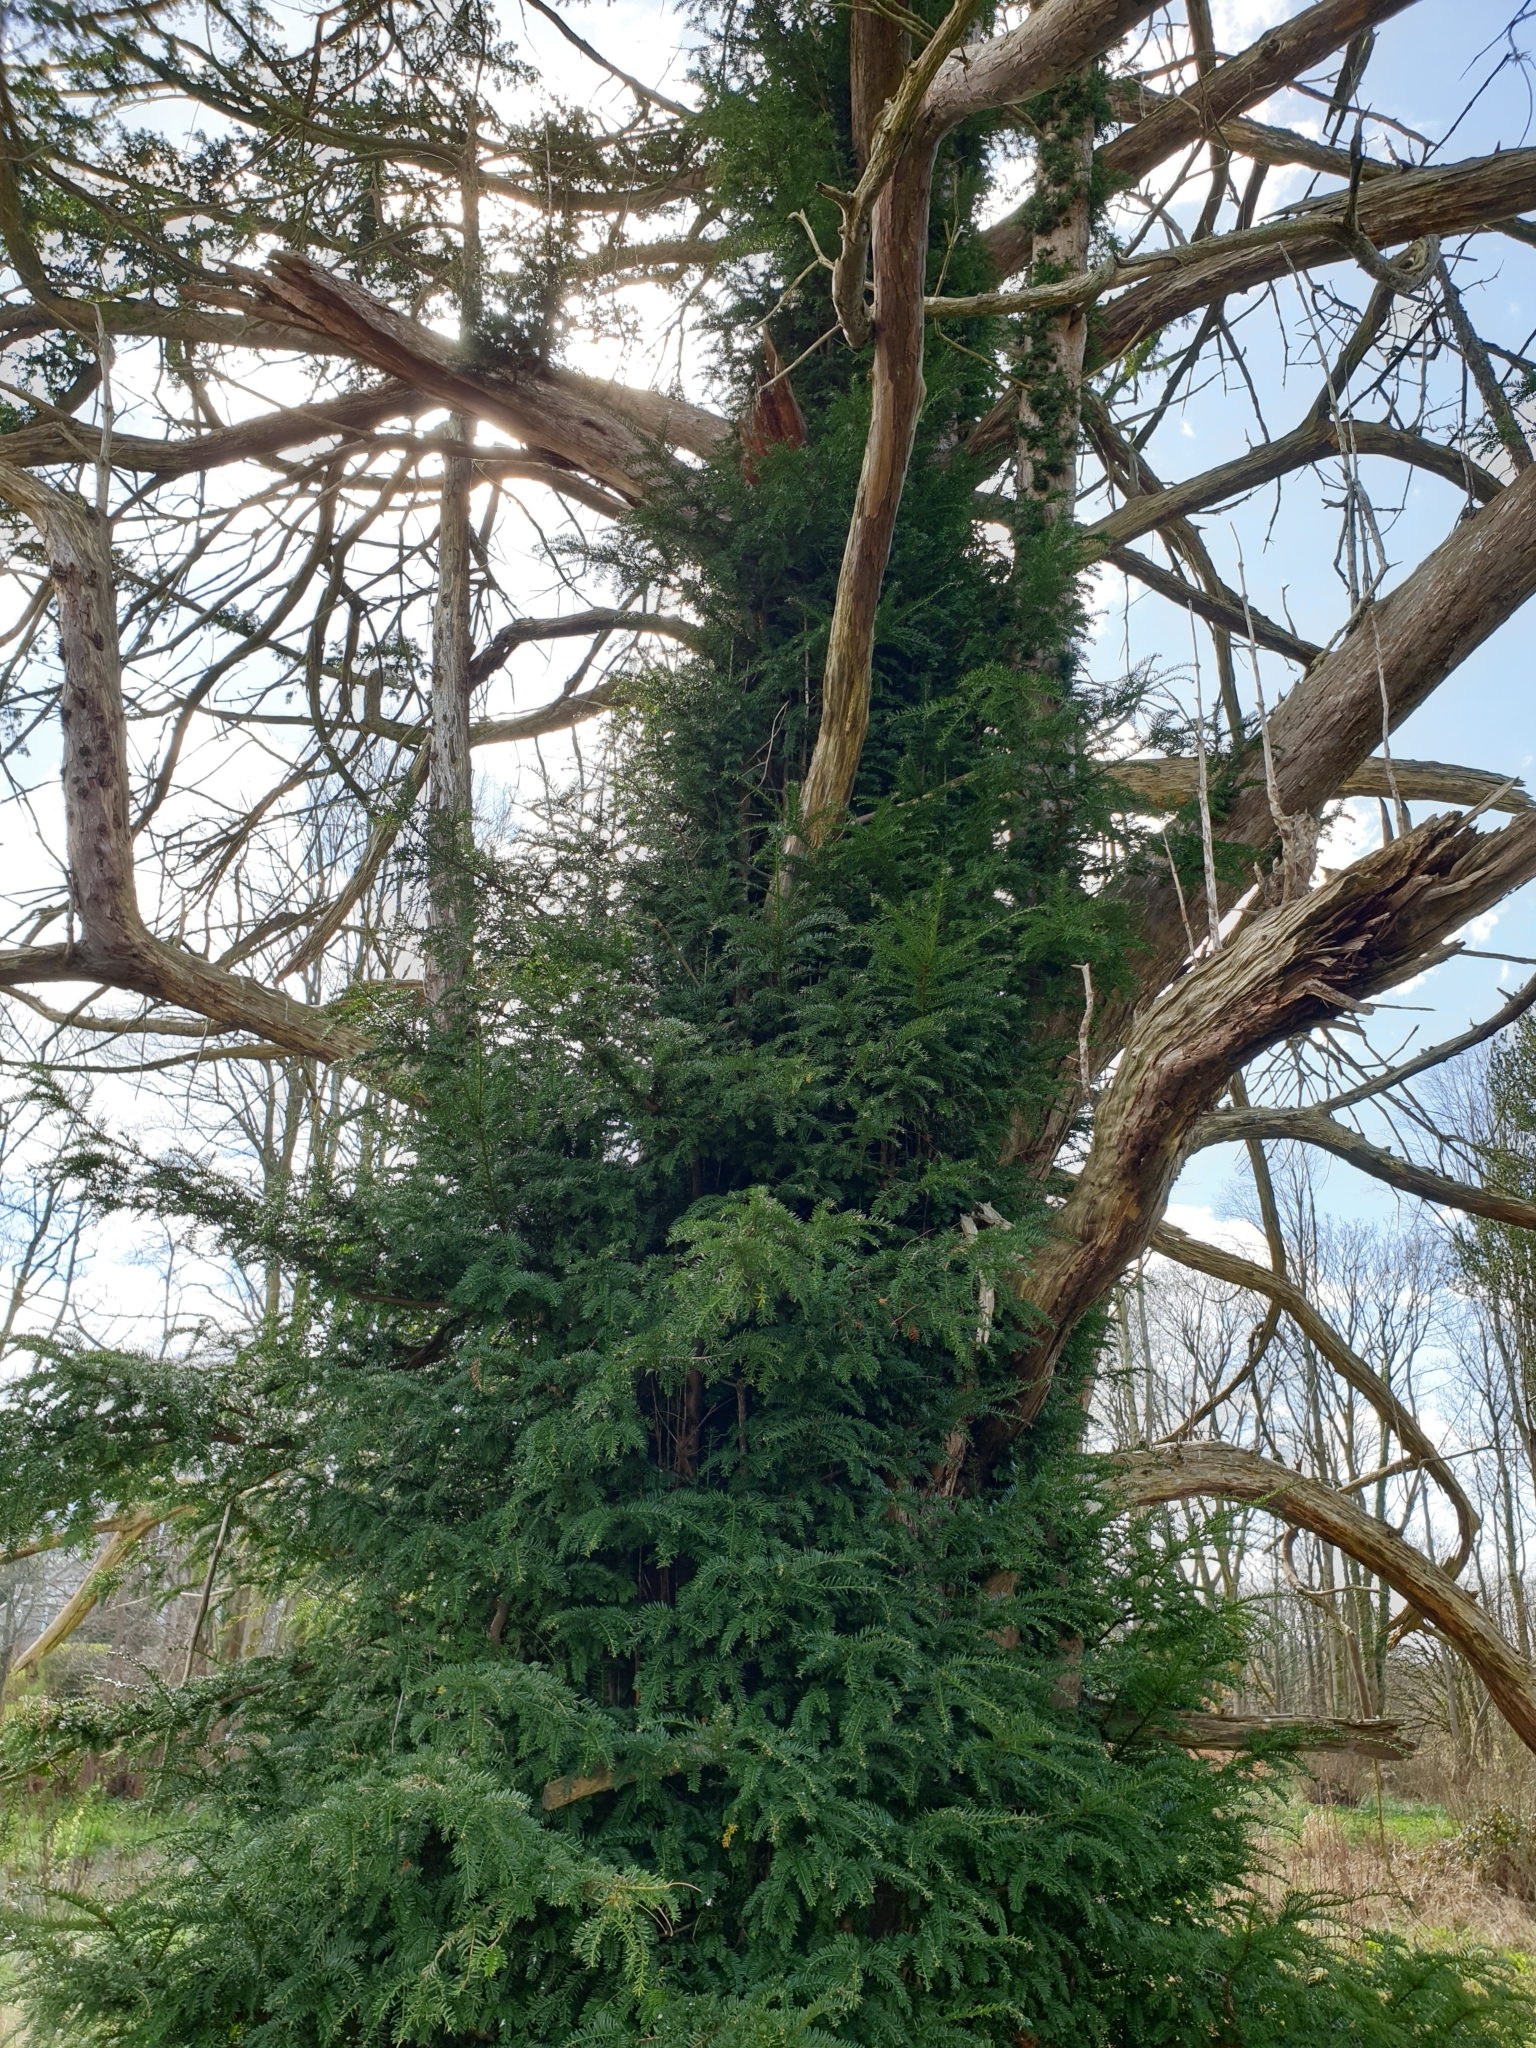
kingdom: Plantae
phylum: Tracheophyta
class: Pinopsida
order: Pinales
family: Taxaceae
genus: Taxus
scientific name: Taxus baccata
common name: Yew
